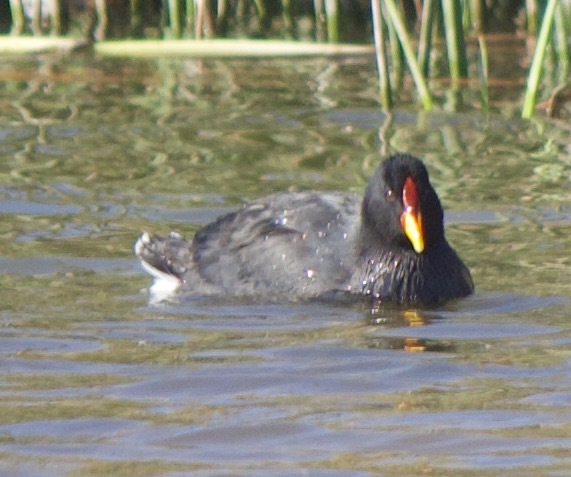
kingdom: Animalia
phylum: Chordata
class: Aves
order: Gruiformes
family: Rallidae
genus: Fulica
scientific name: Fulica rufifrons
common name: Red-fronted coot
